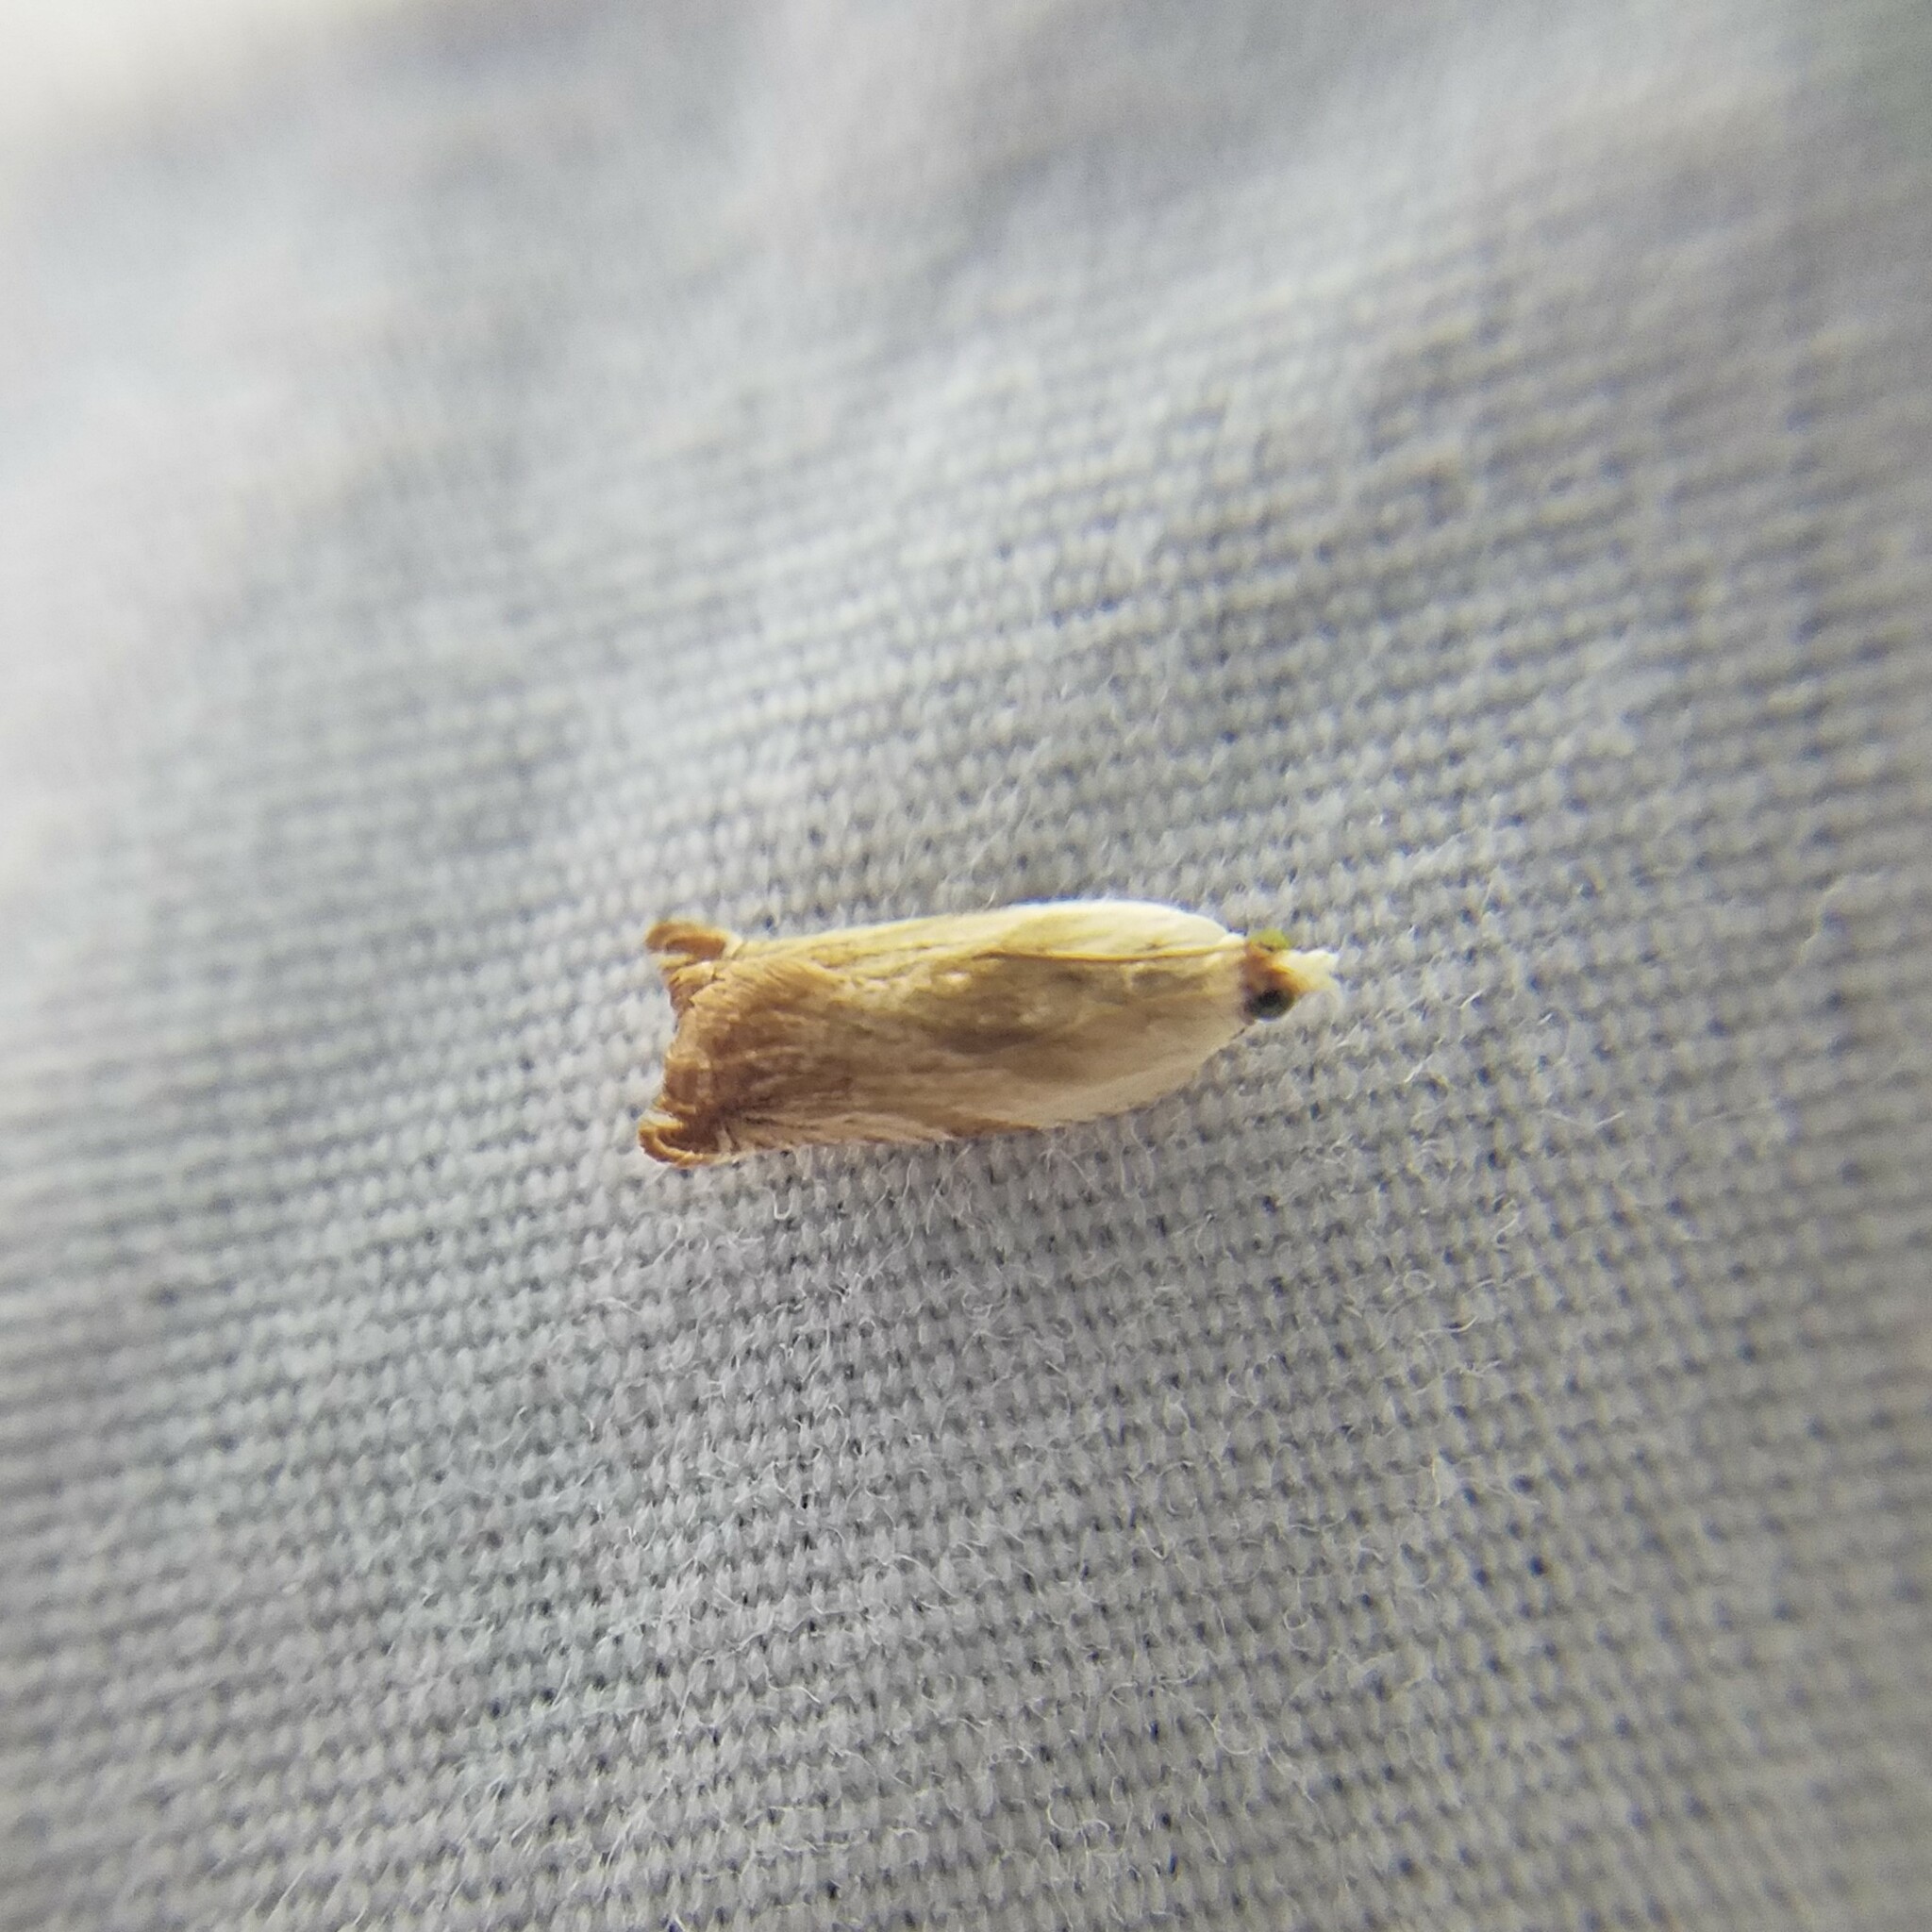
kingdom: Animalia
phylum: Arthropoda
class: Insecta
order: Lepidoptera
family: Tortricidae
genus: Ancylis
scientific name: Ancylis platanana
